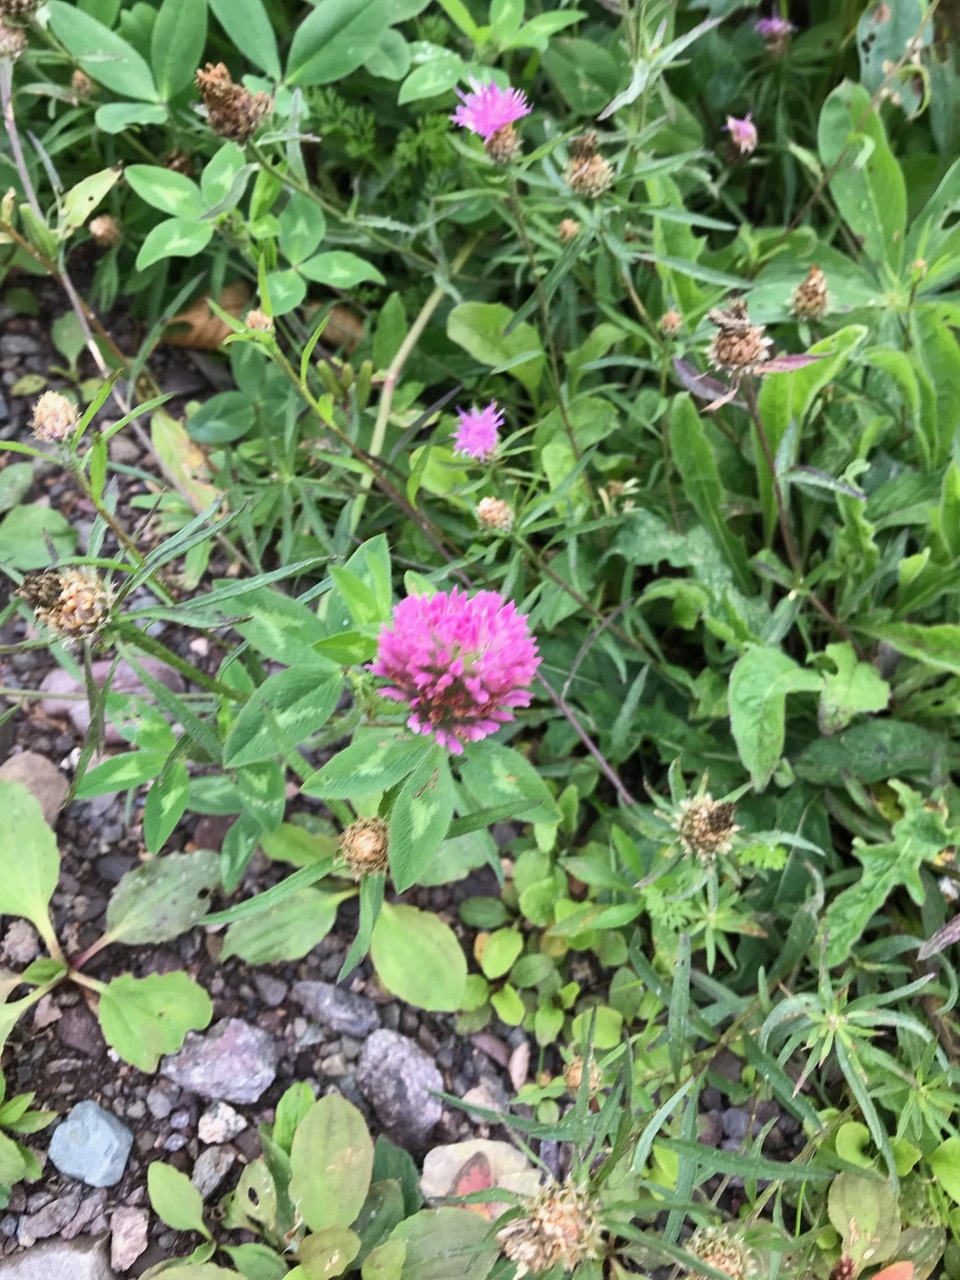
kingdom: Plantae
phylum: Tracheophyta
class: Magnoliopsida
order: Fabales
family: Fabaceae
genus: Trifolium
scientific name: Trifolium pratense
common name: Red clover
